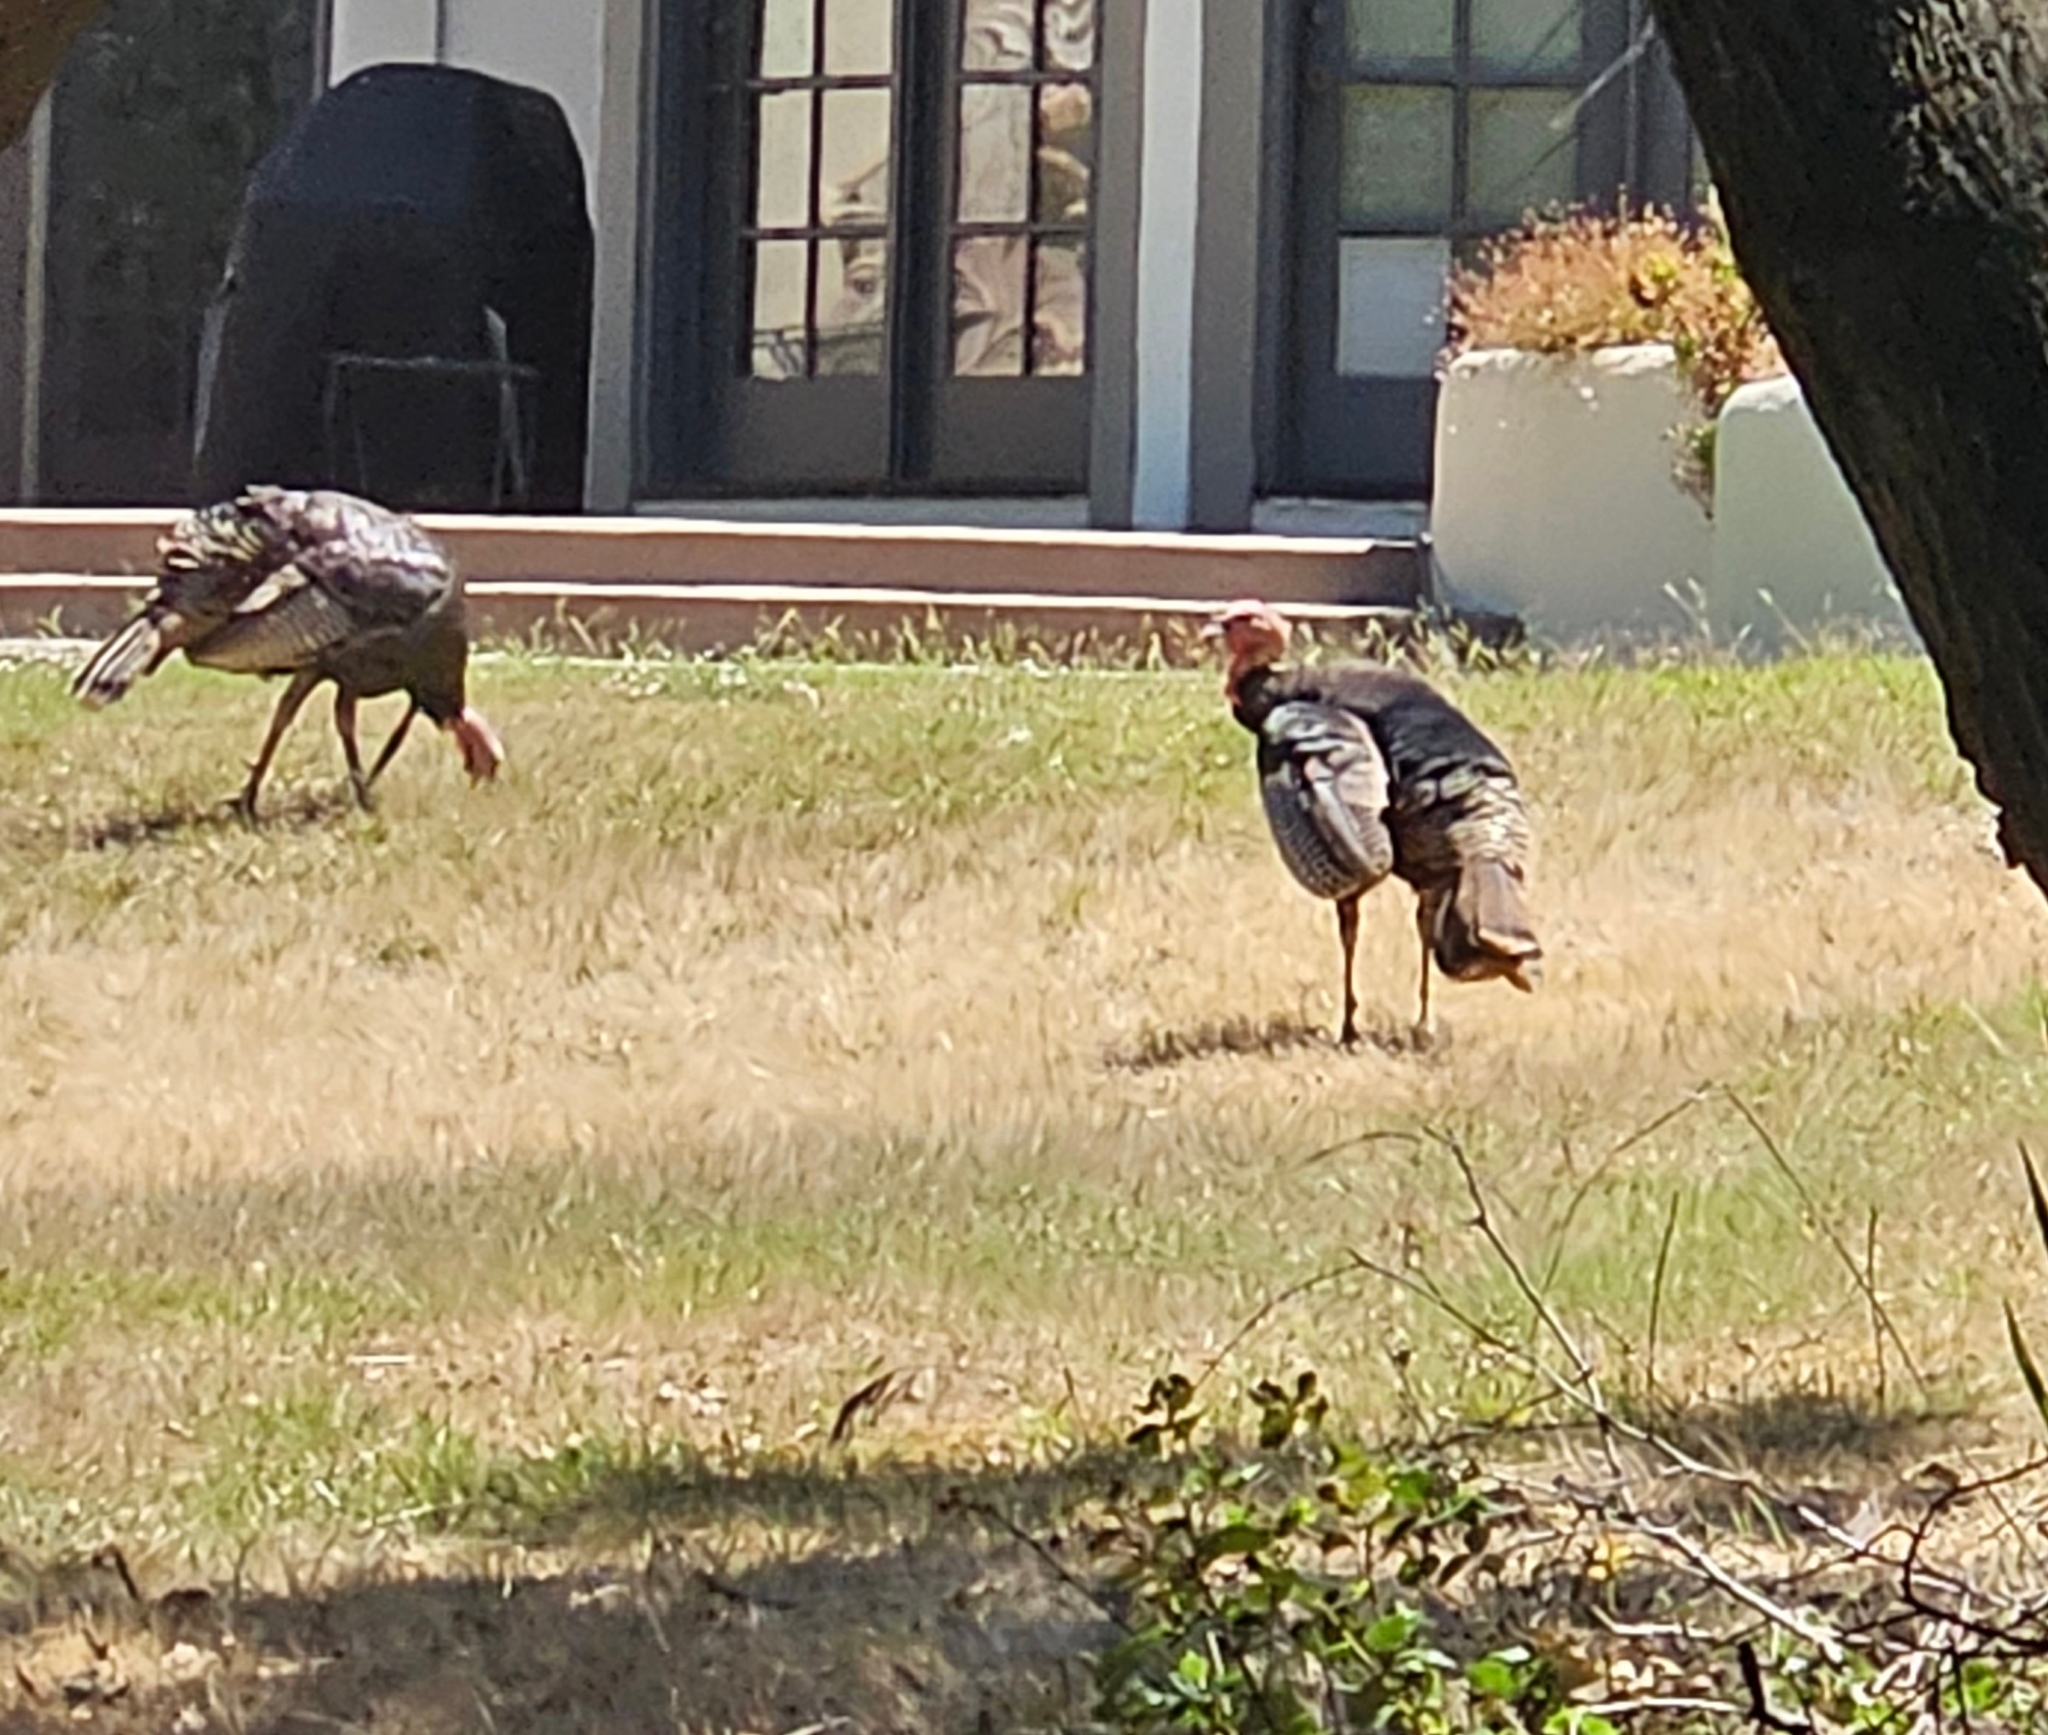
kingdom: Animalia
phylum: Chordata
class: Aves
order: Galliformes
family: Phasianidae
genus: Meleagris
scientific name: Meleagris gallopavo
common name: Wild turkey
